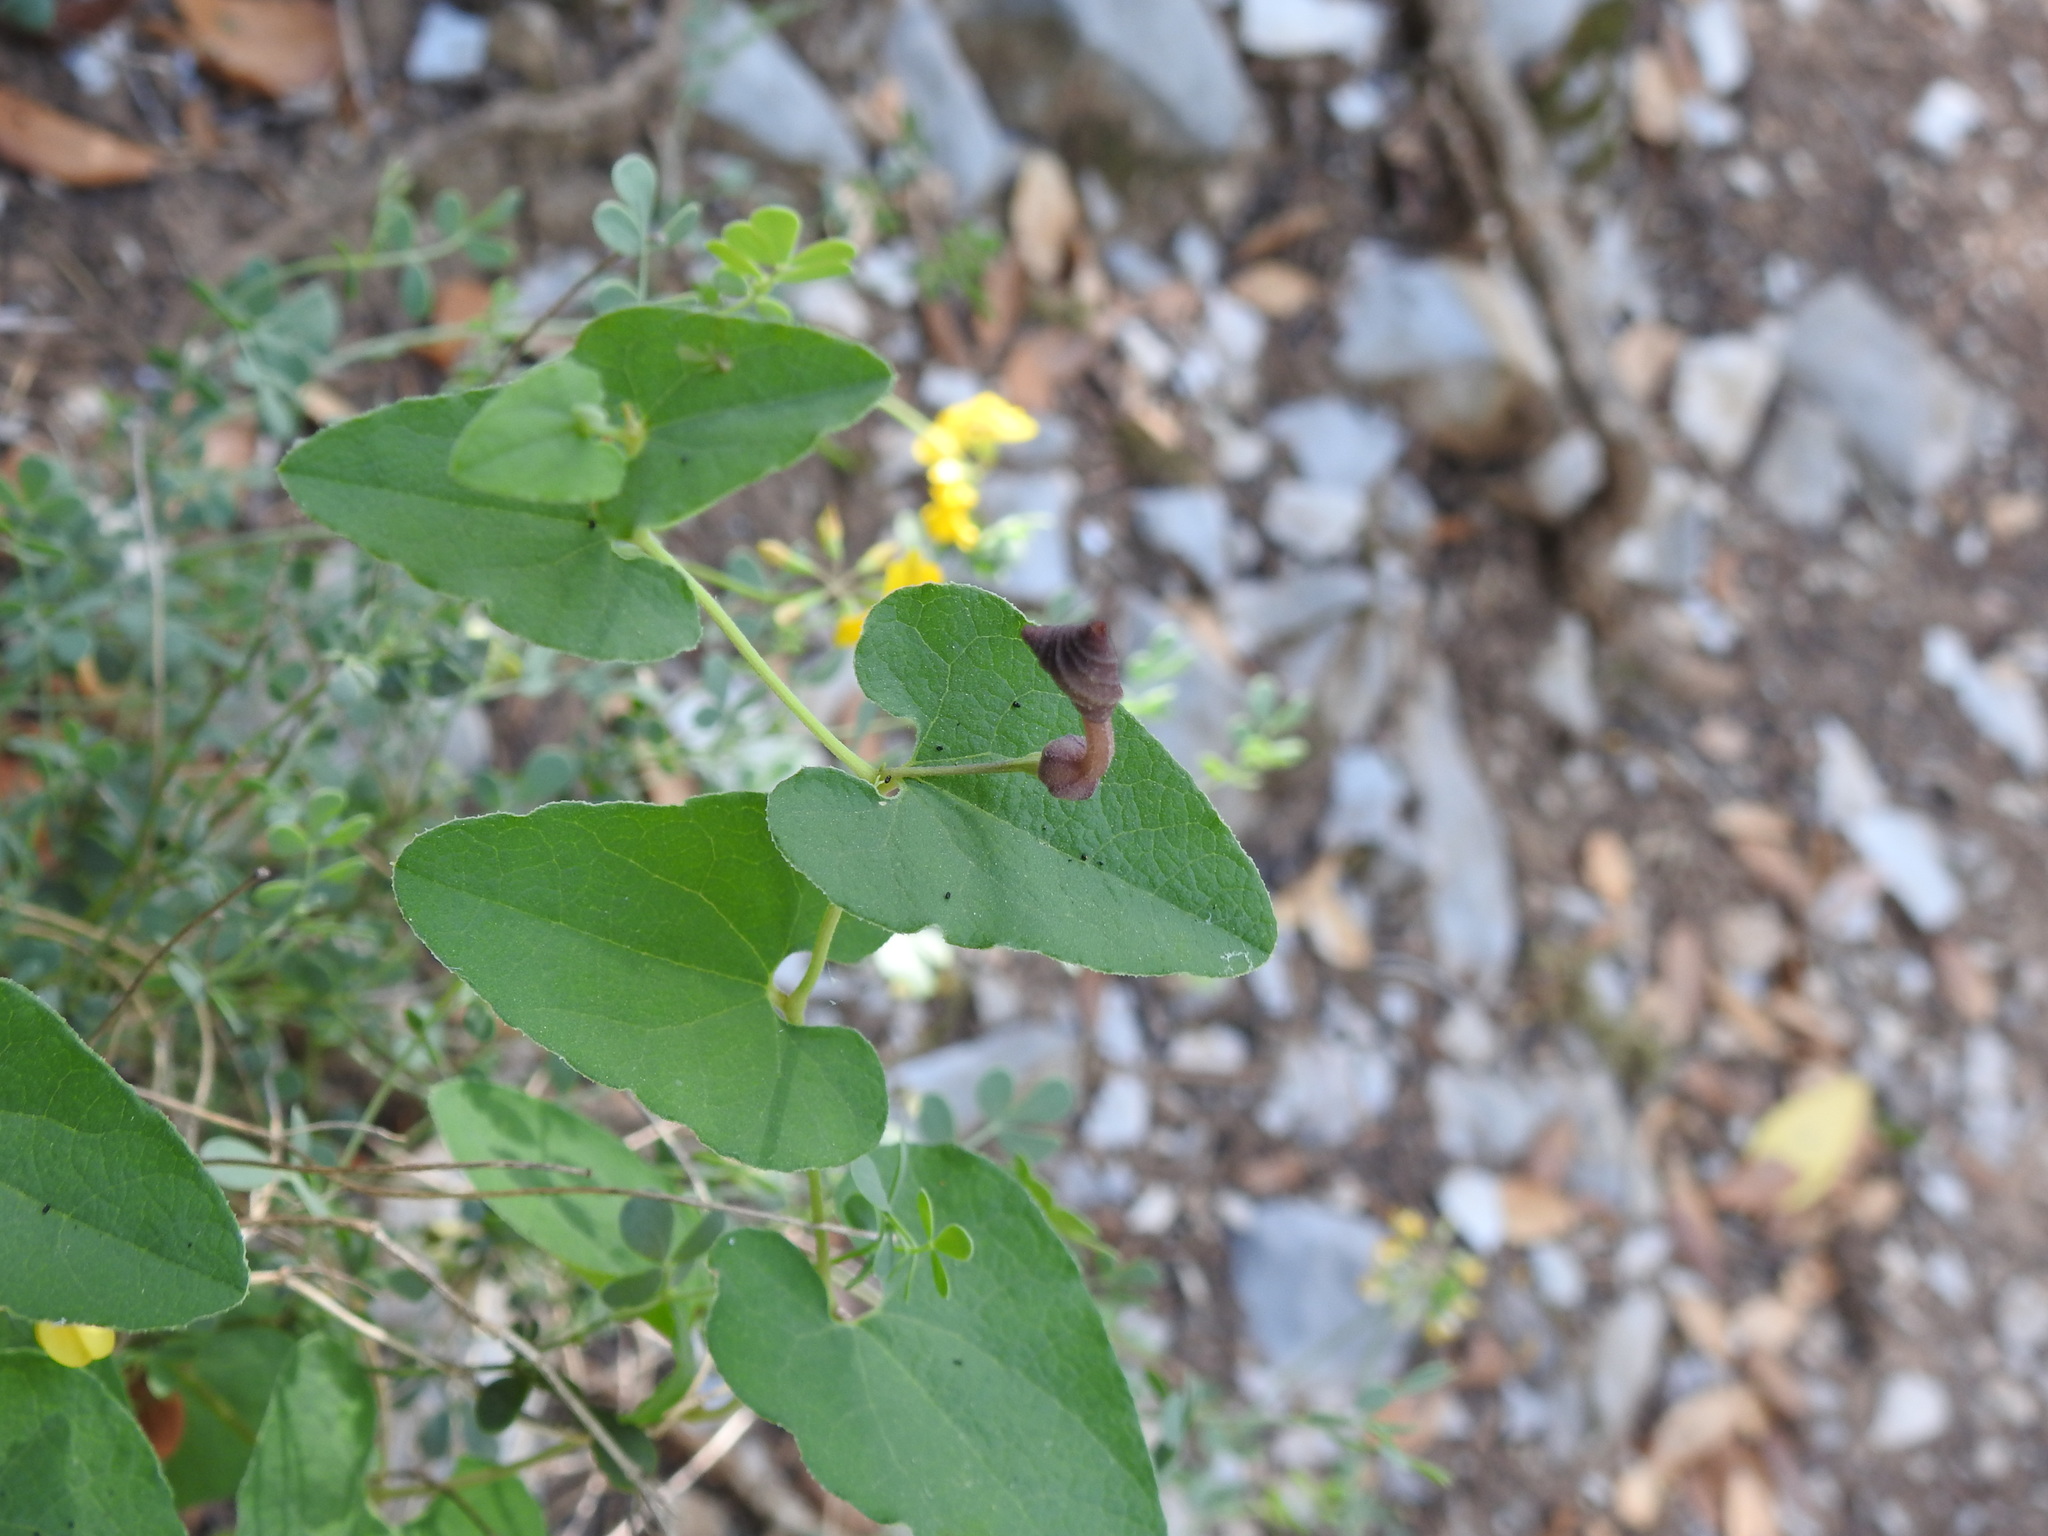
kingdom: Plantae
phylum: Tracheophyta
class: Magnoliopsida
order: Piperales
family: Aristolochiaceae
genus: Aristolochia
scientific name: Aristolochia pistolochia
